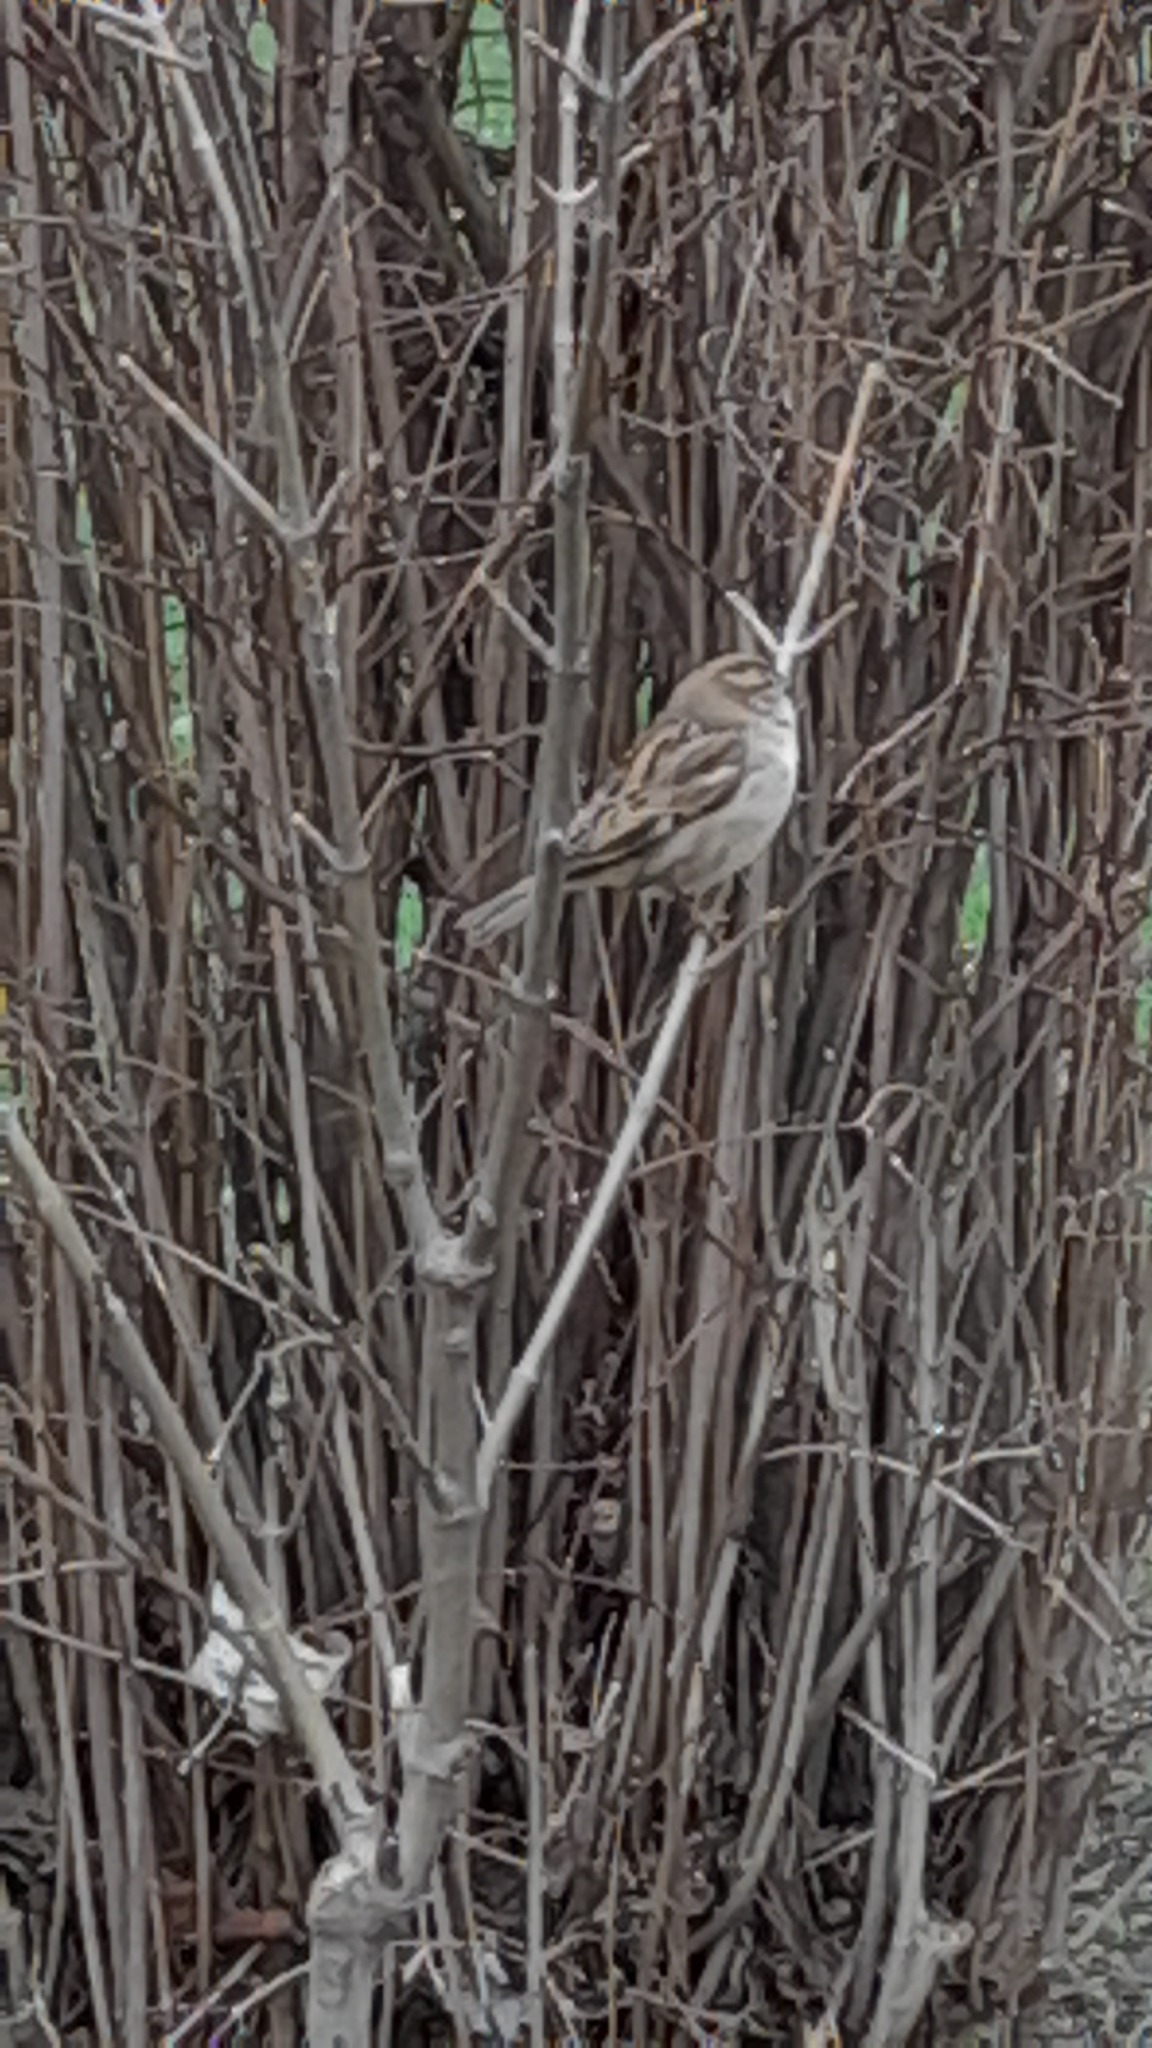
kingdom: Animalia
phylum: Chordata
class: Aves
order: Passeriformes
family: Passeridae
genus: Passer
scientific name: Passer domesticus
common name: House sparrow
